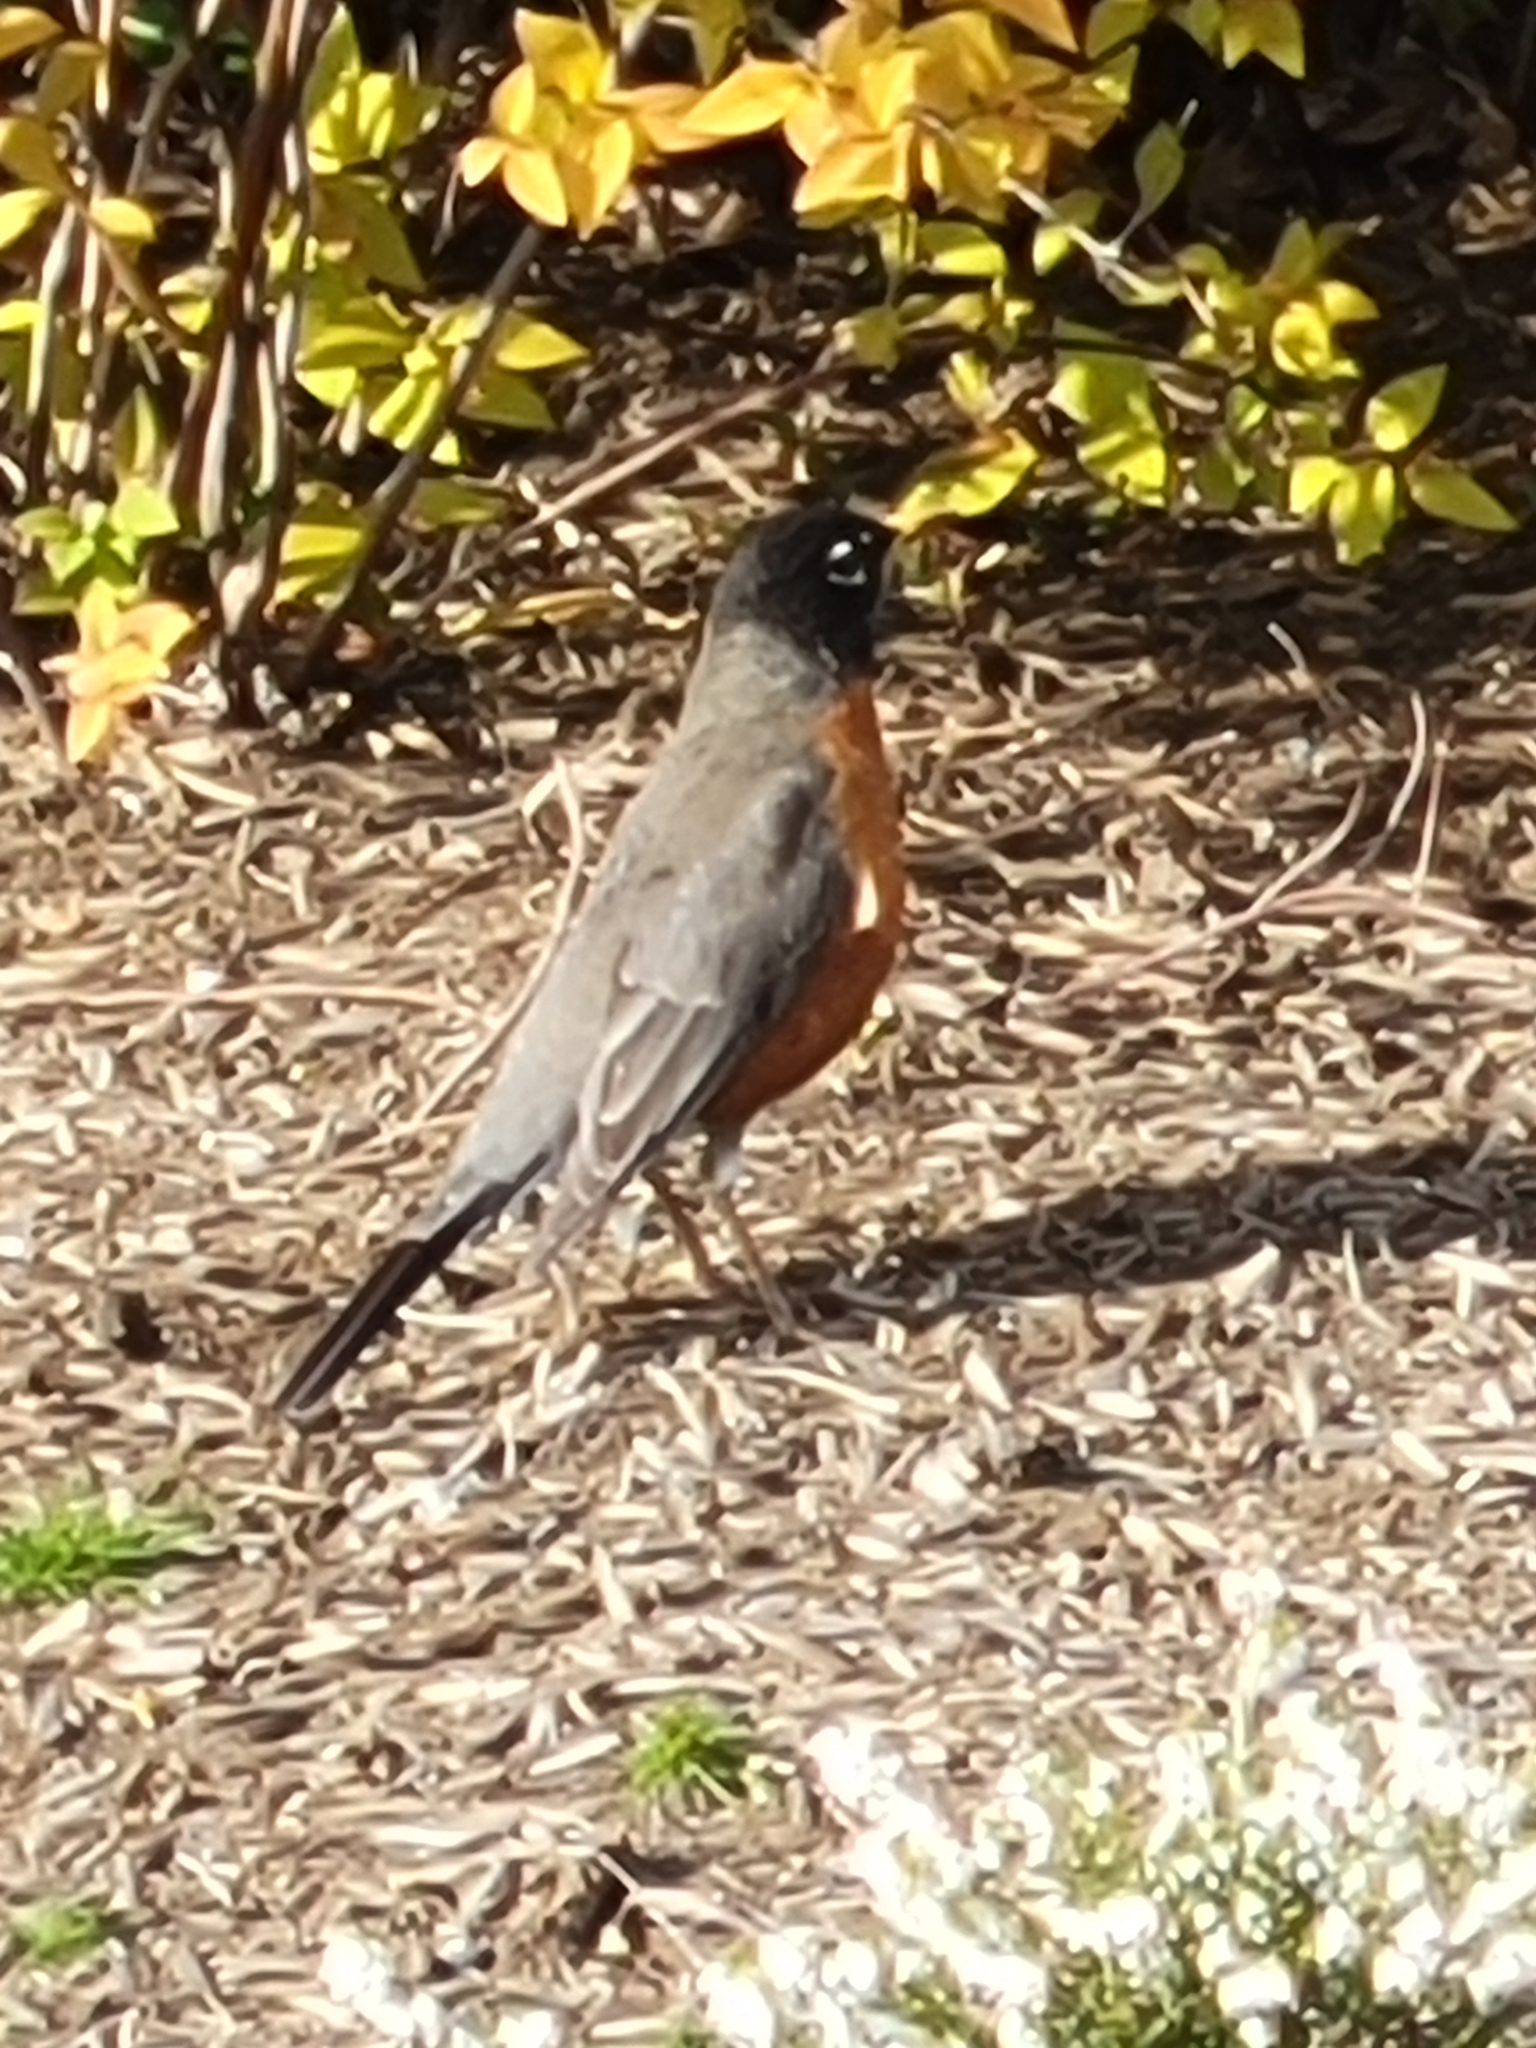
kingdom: Animalia
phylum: Chordata
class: Aves
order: Passeriformes
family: Turdidae
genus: Turdus
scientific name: Turdus migratorius
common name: American robin
